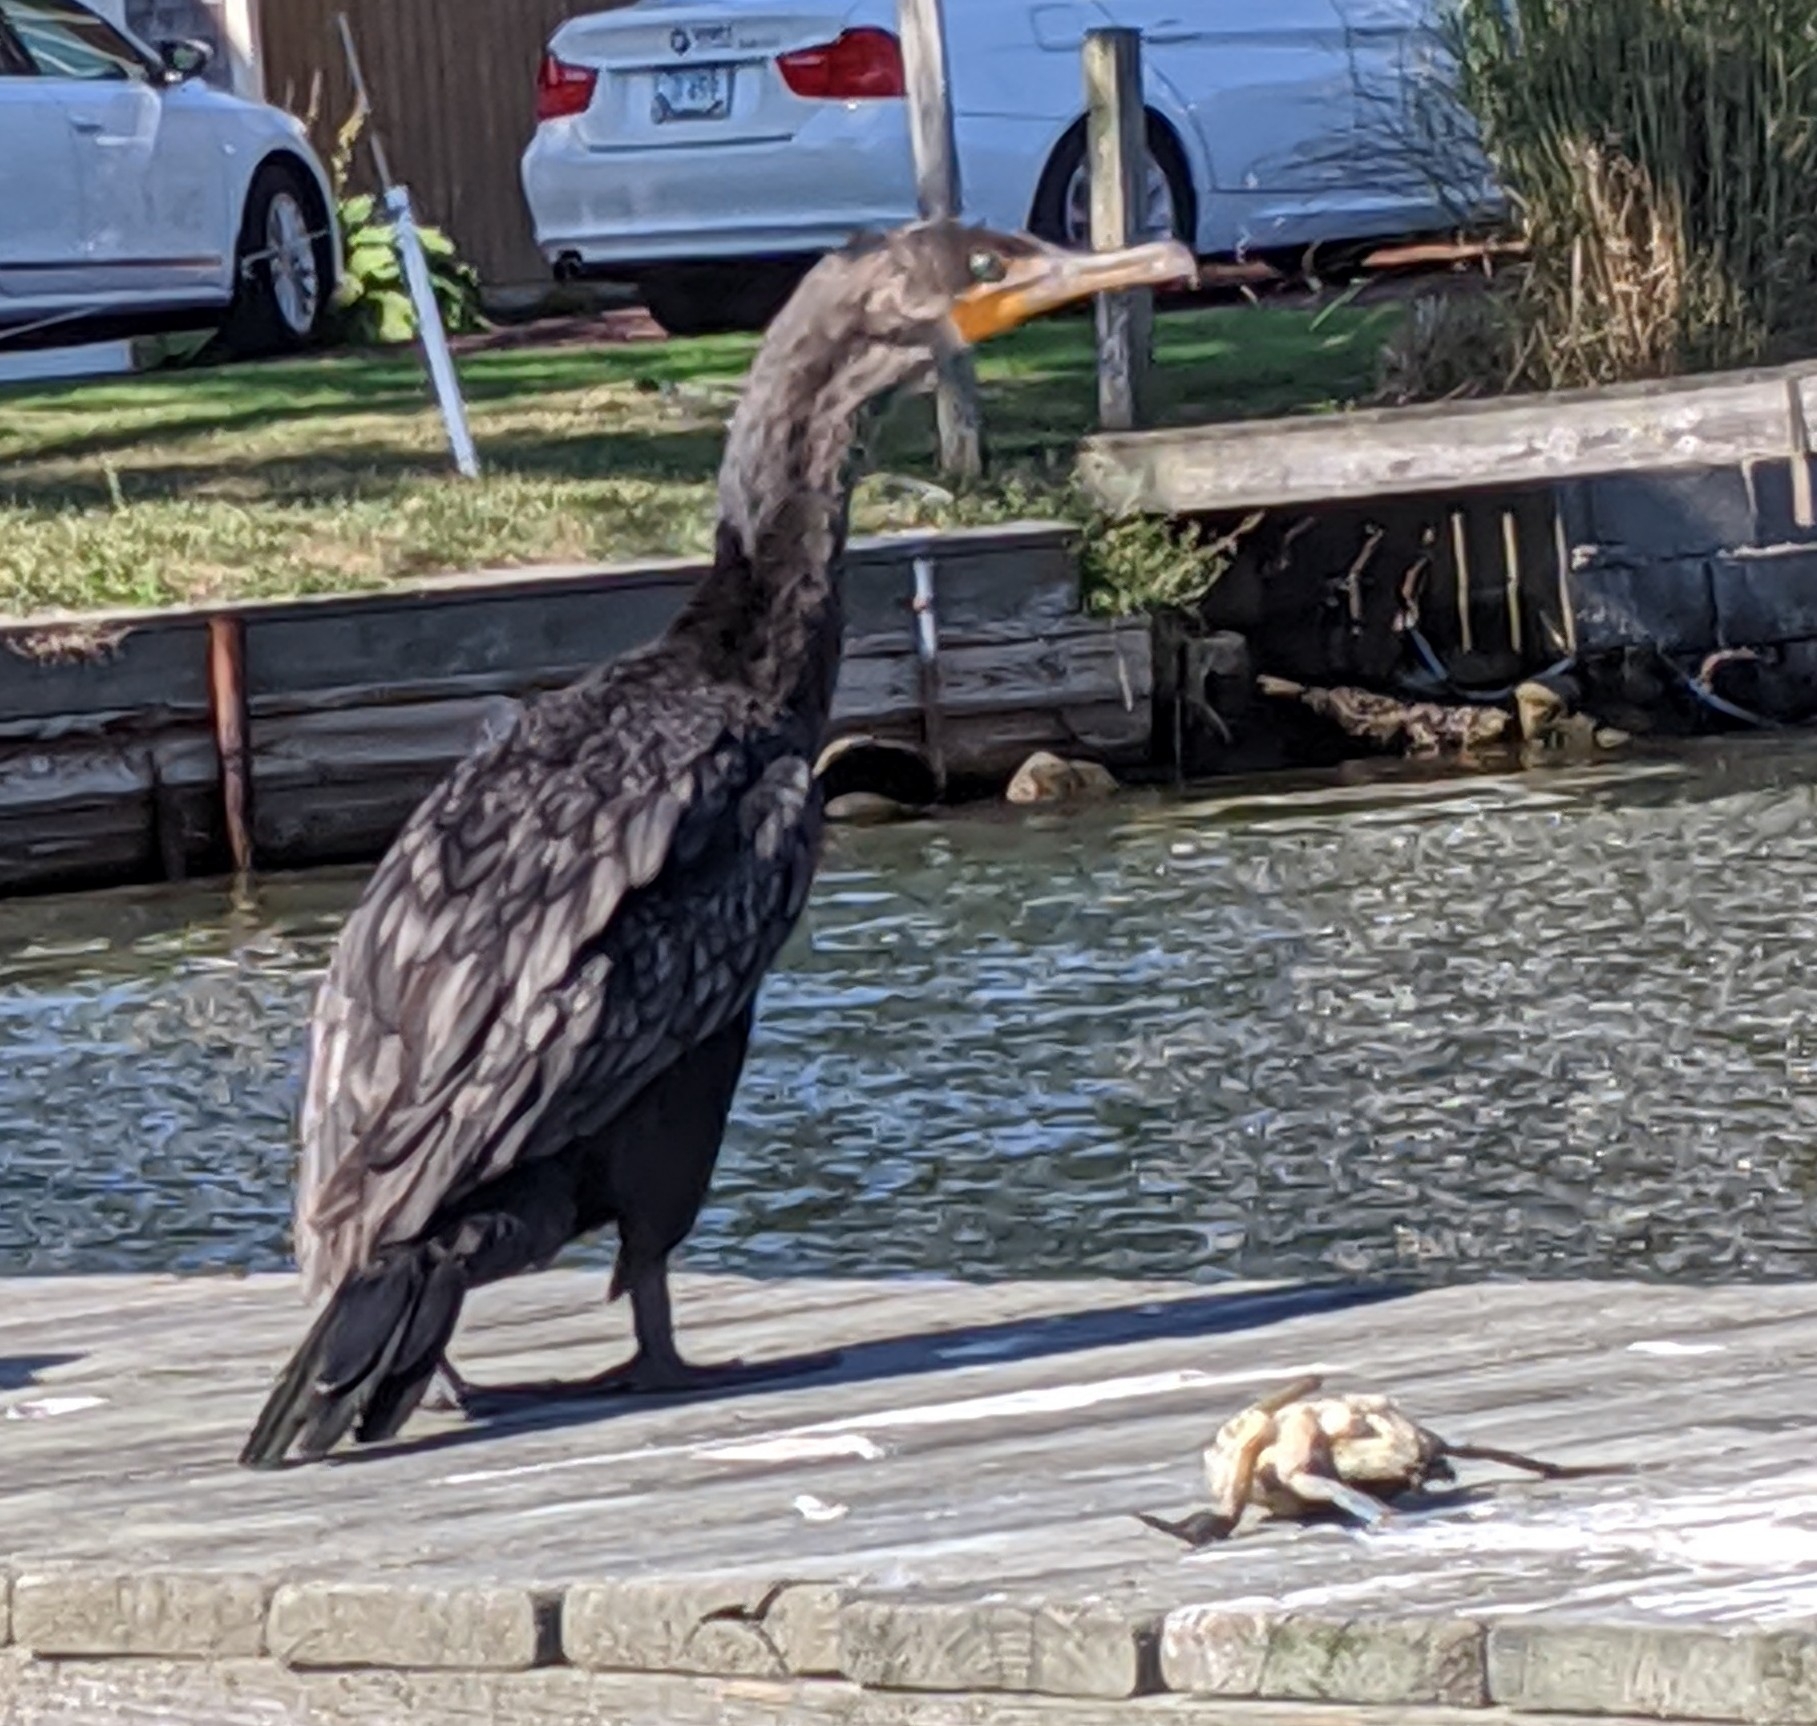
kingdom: Animalia
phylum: Chordata
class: Aves
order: Suliformes
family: Phalacrocoracidae
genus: Phalacrocorax
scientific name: Phalacrocorax auritus
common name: Double-crested cormorant
